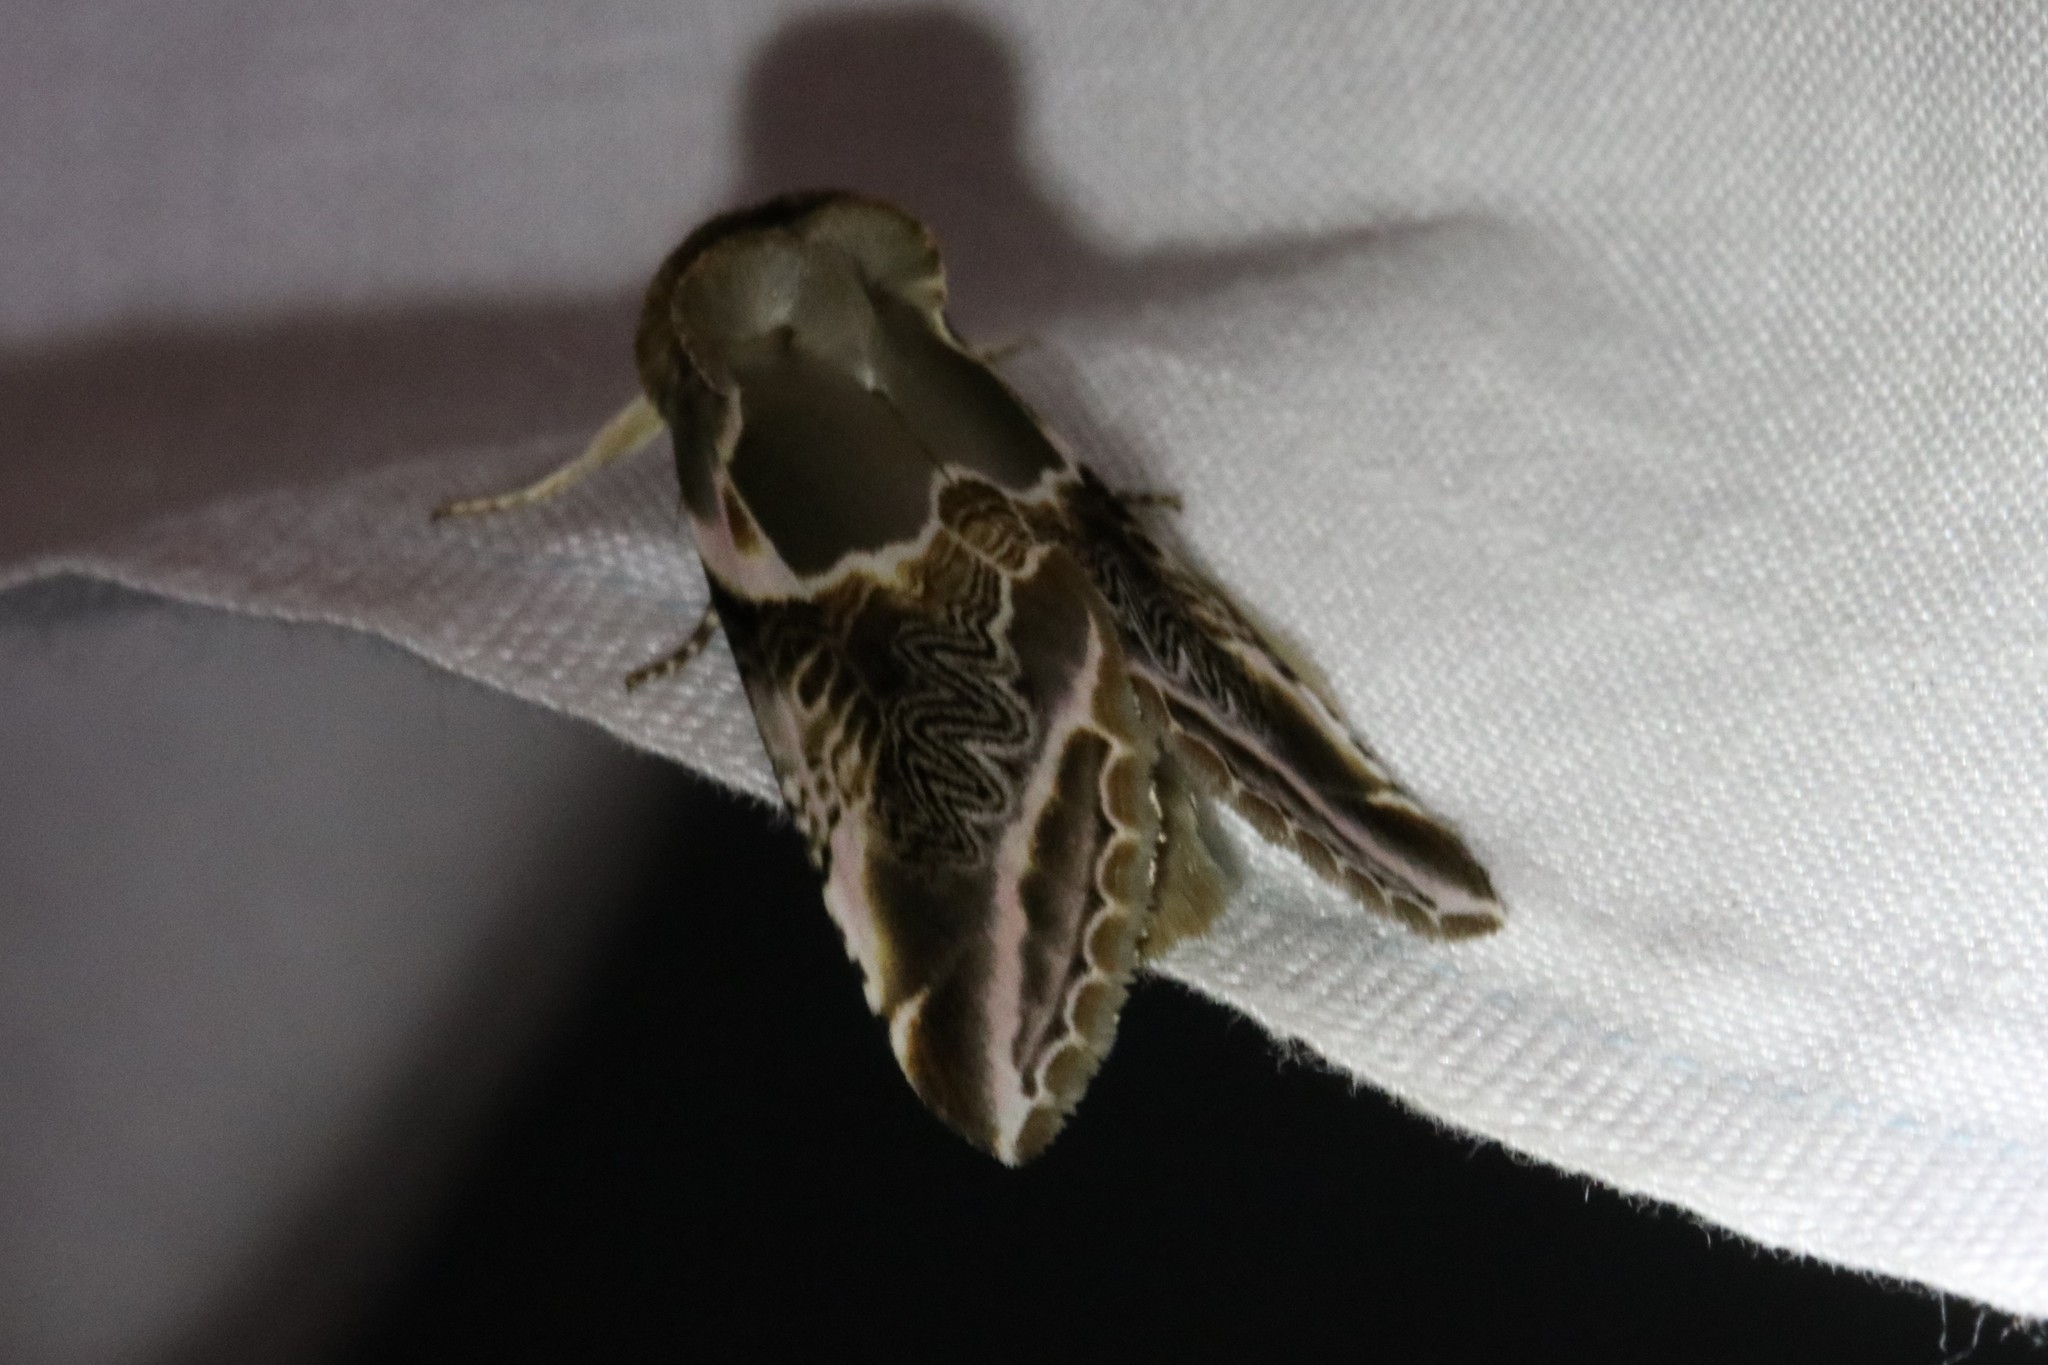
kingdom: Animalia
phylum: Arthropoda
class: Insecta
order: Lepidoptera
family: Drepanidae
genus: Habrosyne
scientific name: Habrosyne scripta
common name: Lettered habrosyne moth
